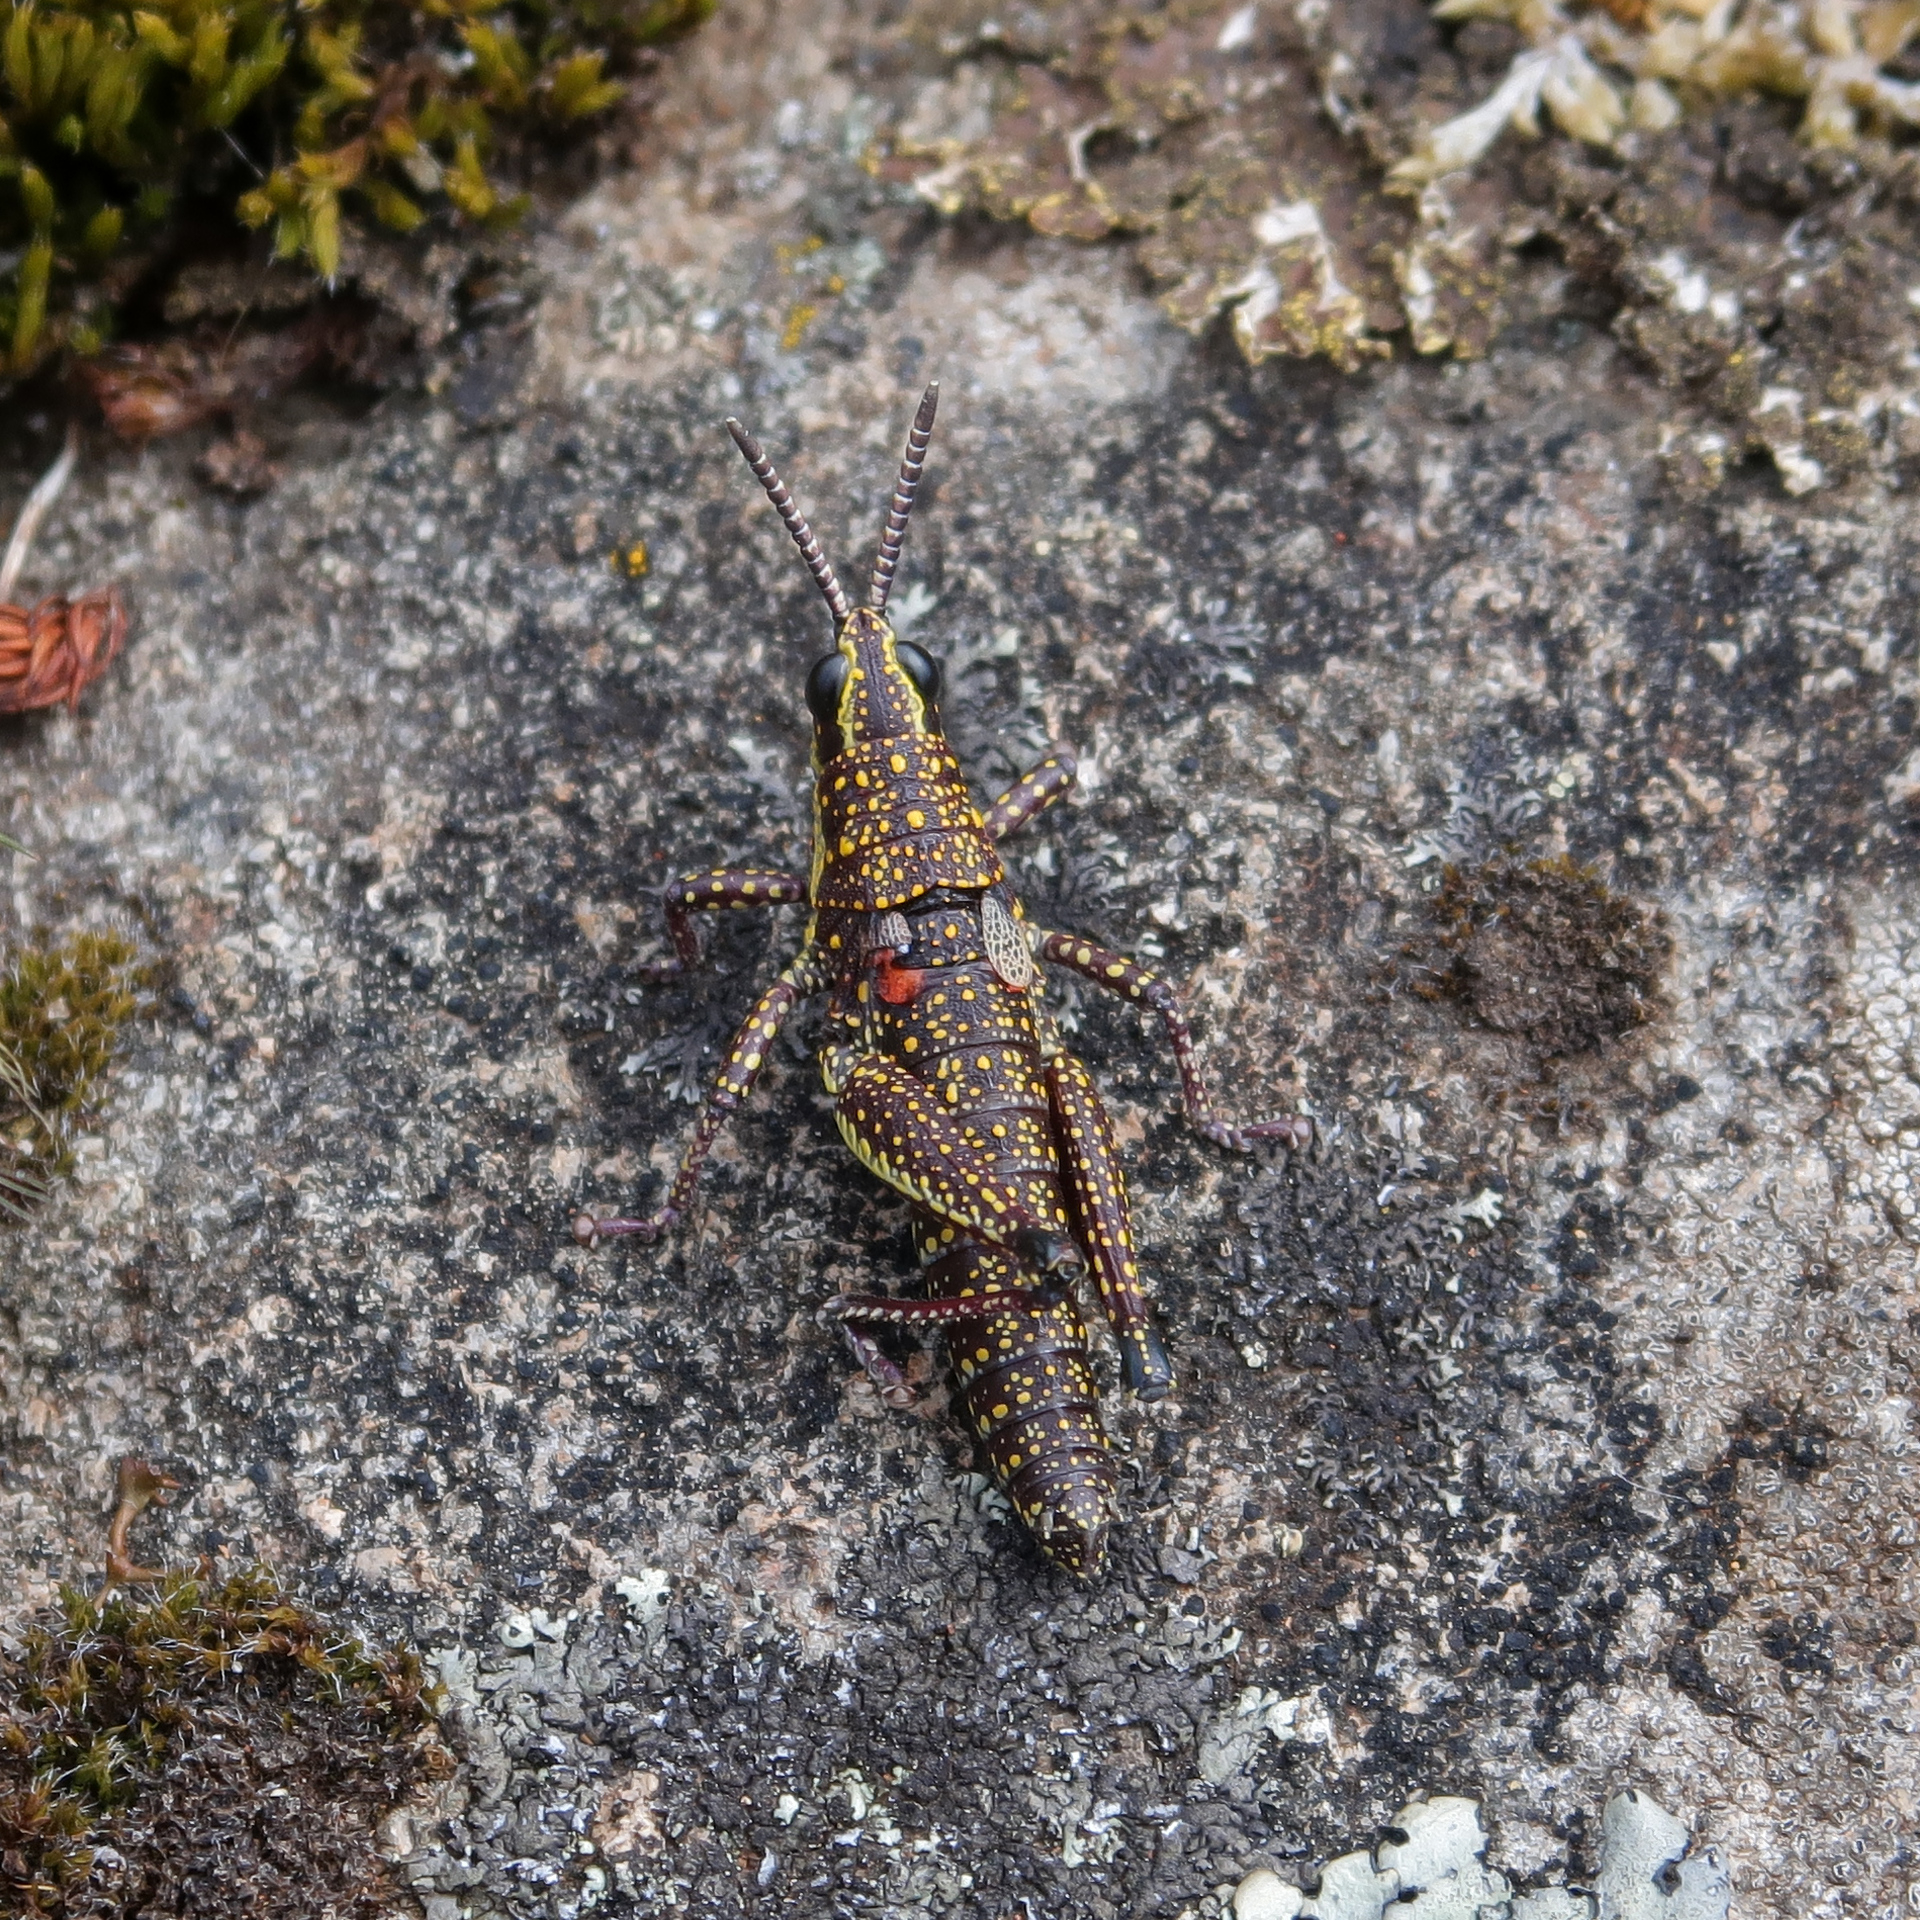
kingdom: Animalia
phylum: Arthropoda
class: Insecta
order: Orthoptera
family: Pyrgomorphidae
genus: Monistria
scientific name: Monistria concinna
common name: Southern pyrgomorph
